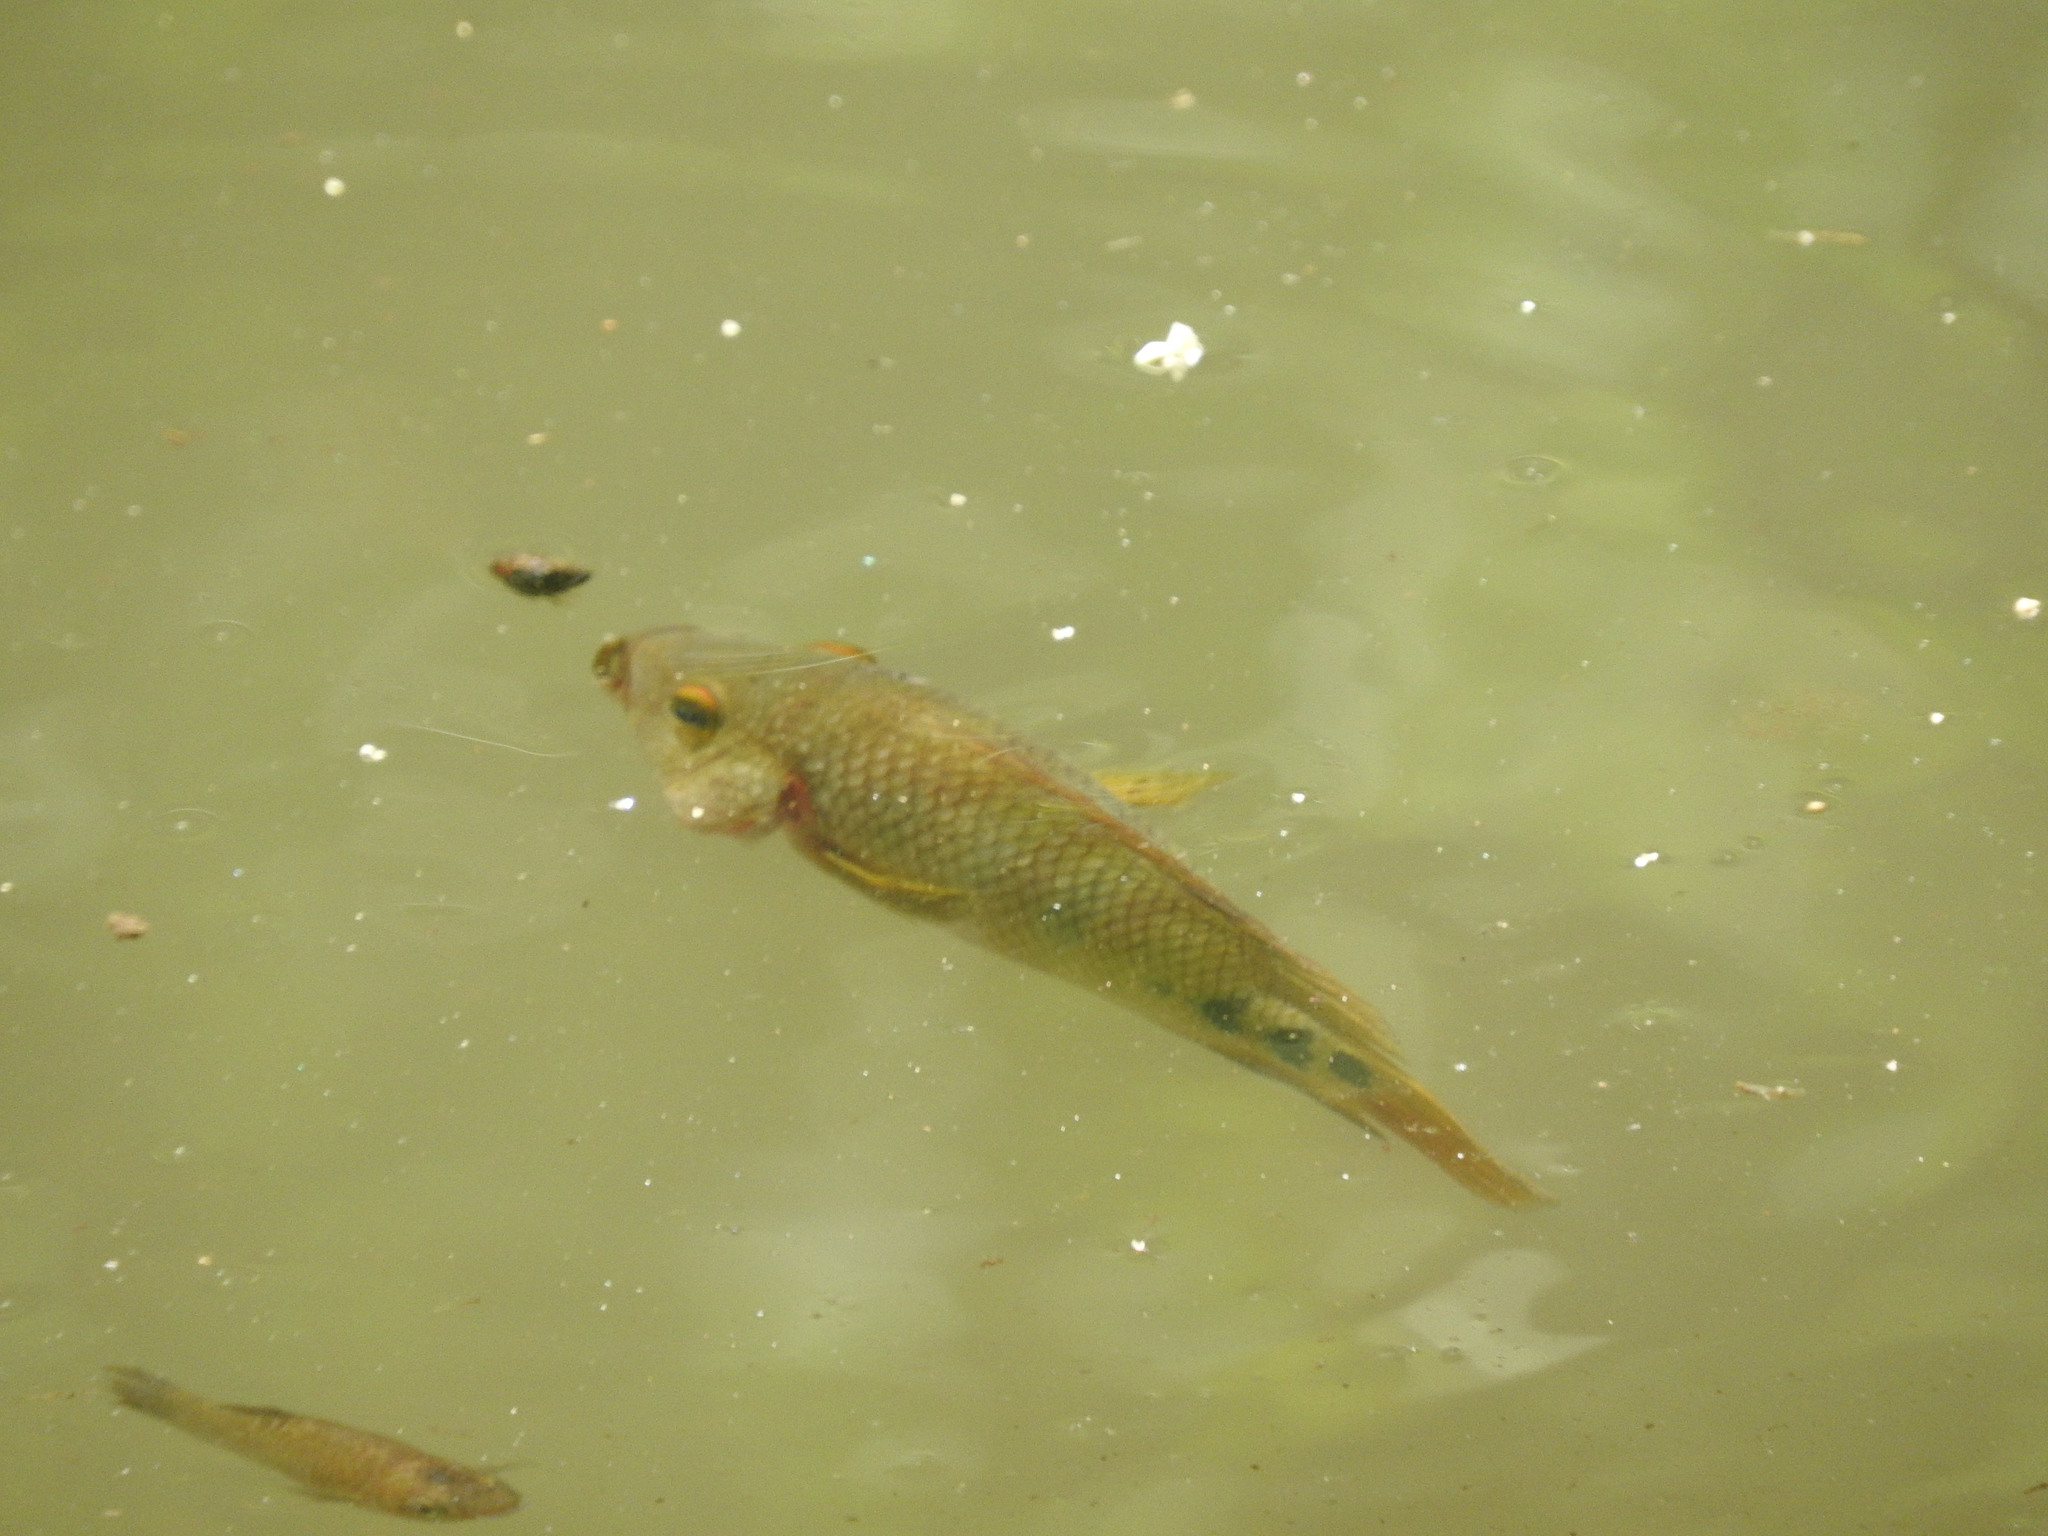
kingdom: Animalia
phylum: Chordata
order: Perciformes
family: Cichlidae
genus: Mayaheros
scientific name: Mayaheros urophthalmus
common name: Mayan cichlid
